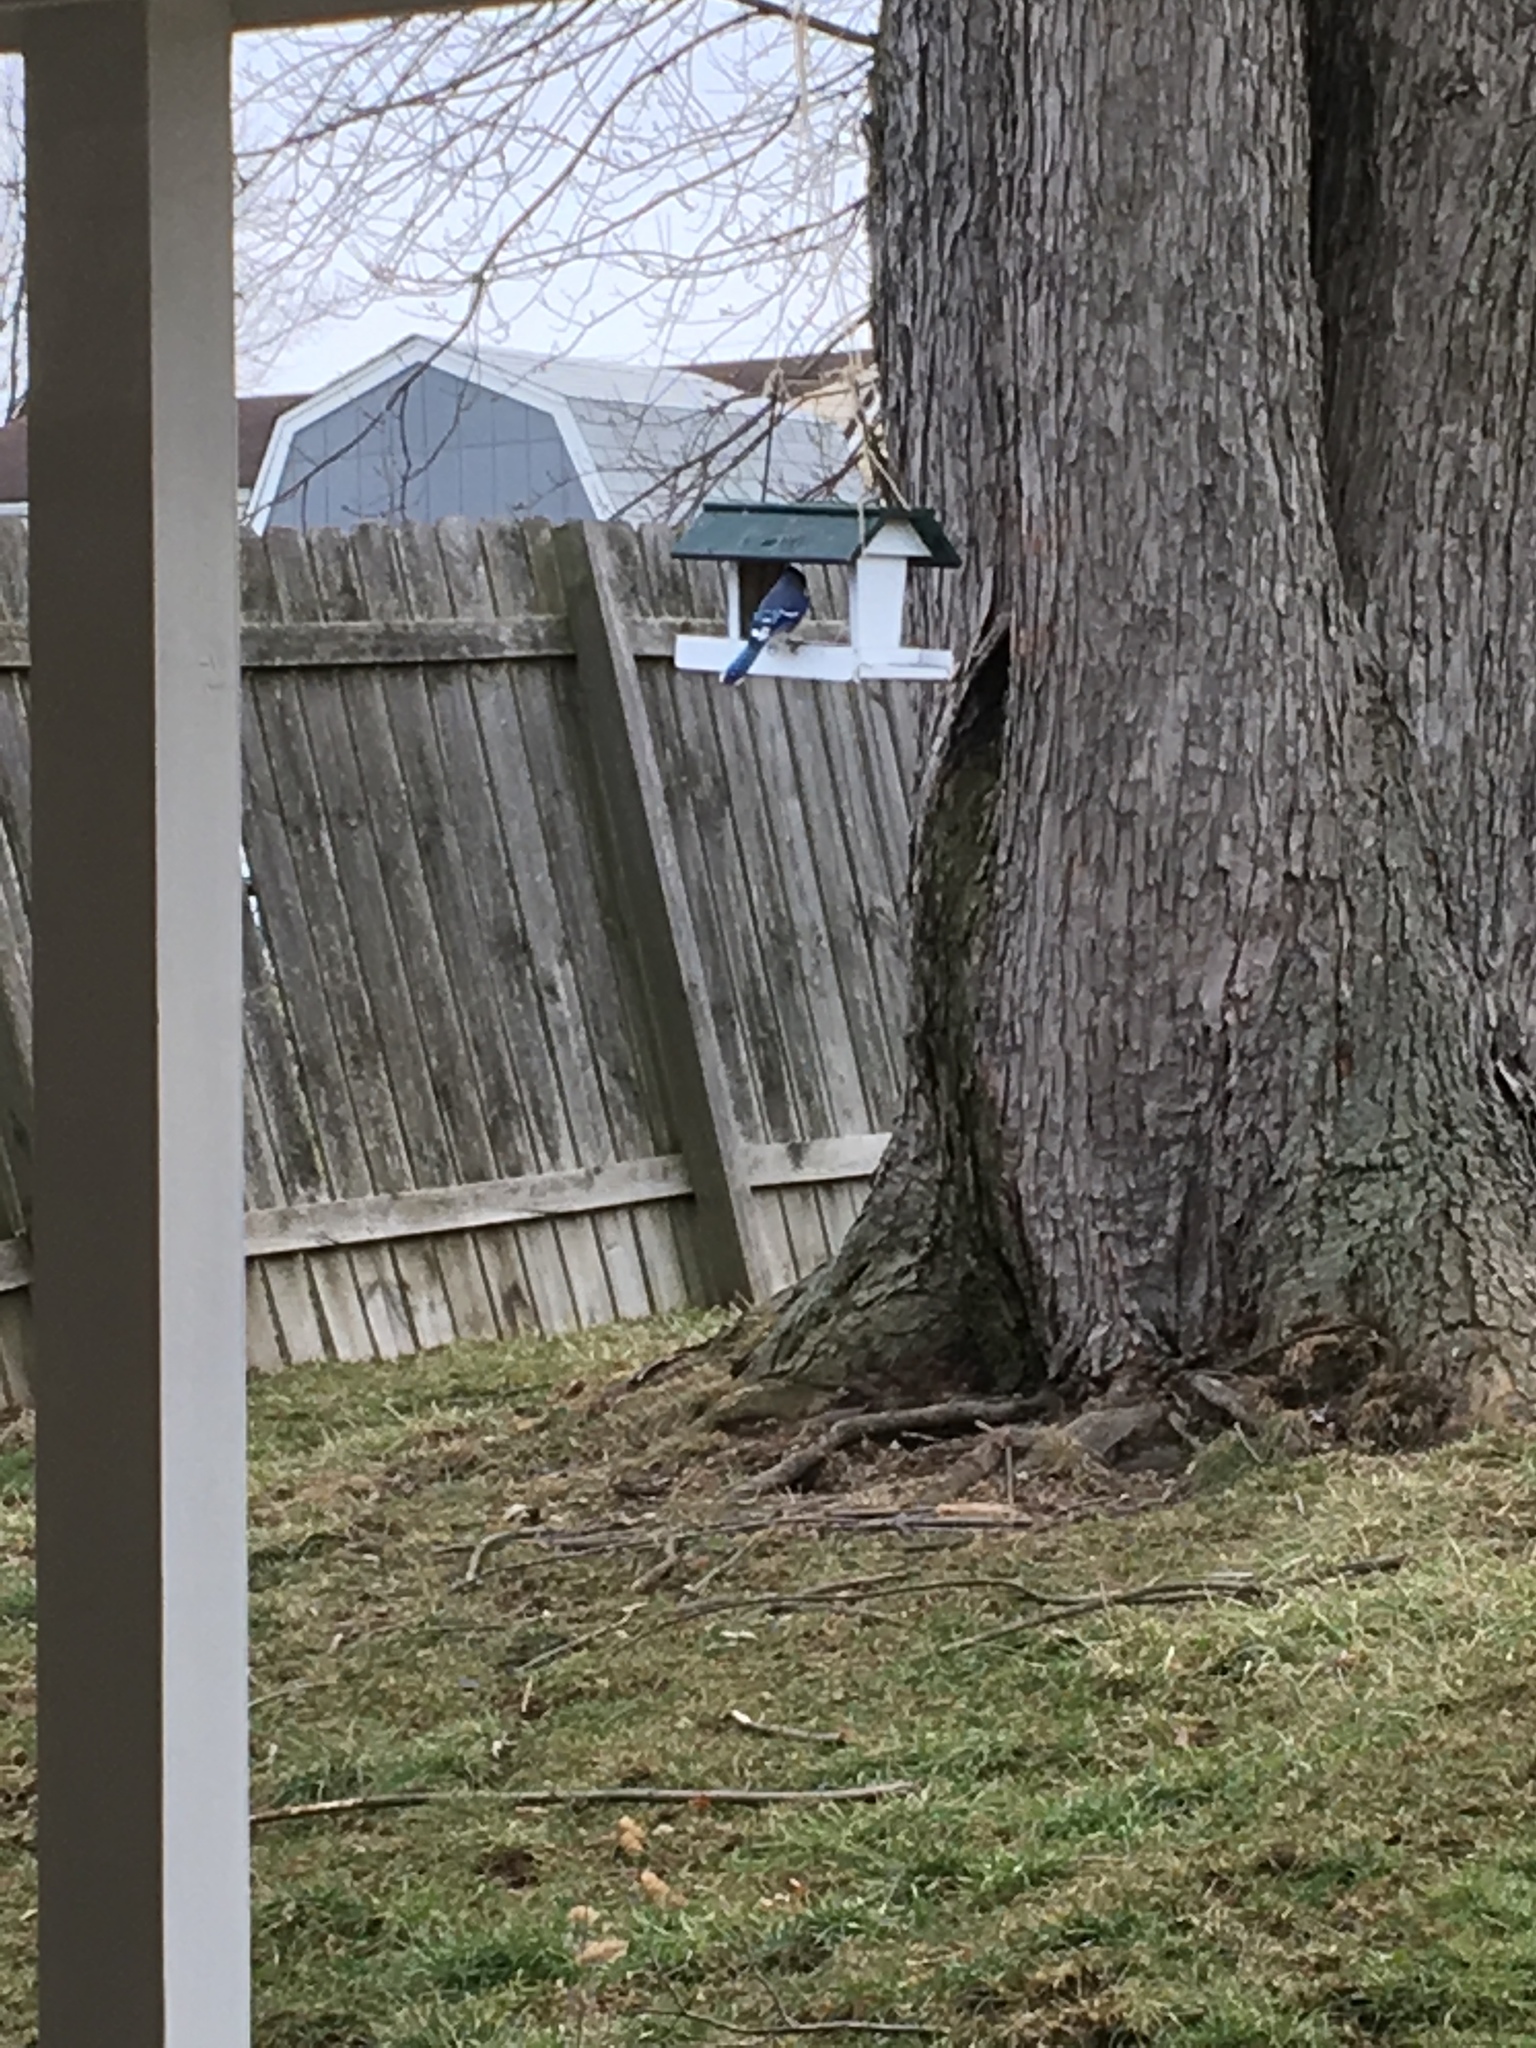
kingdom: Animalia
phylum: Chordata
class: Aves
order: Passeriformes
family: Corvidae
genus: Cyanocitta
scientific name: Cyanocitta cristata
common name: Blue jay
